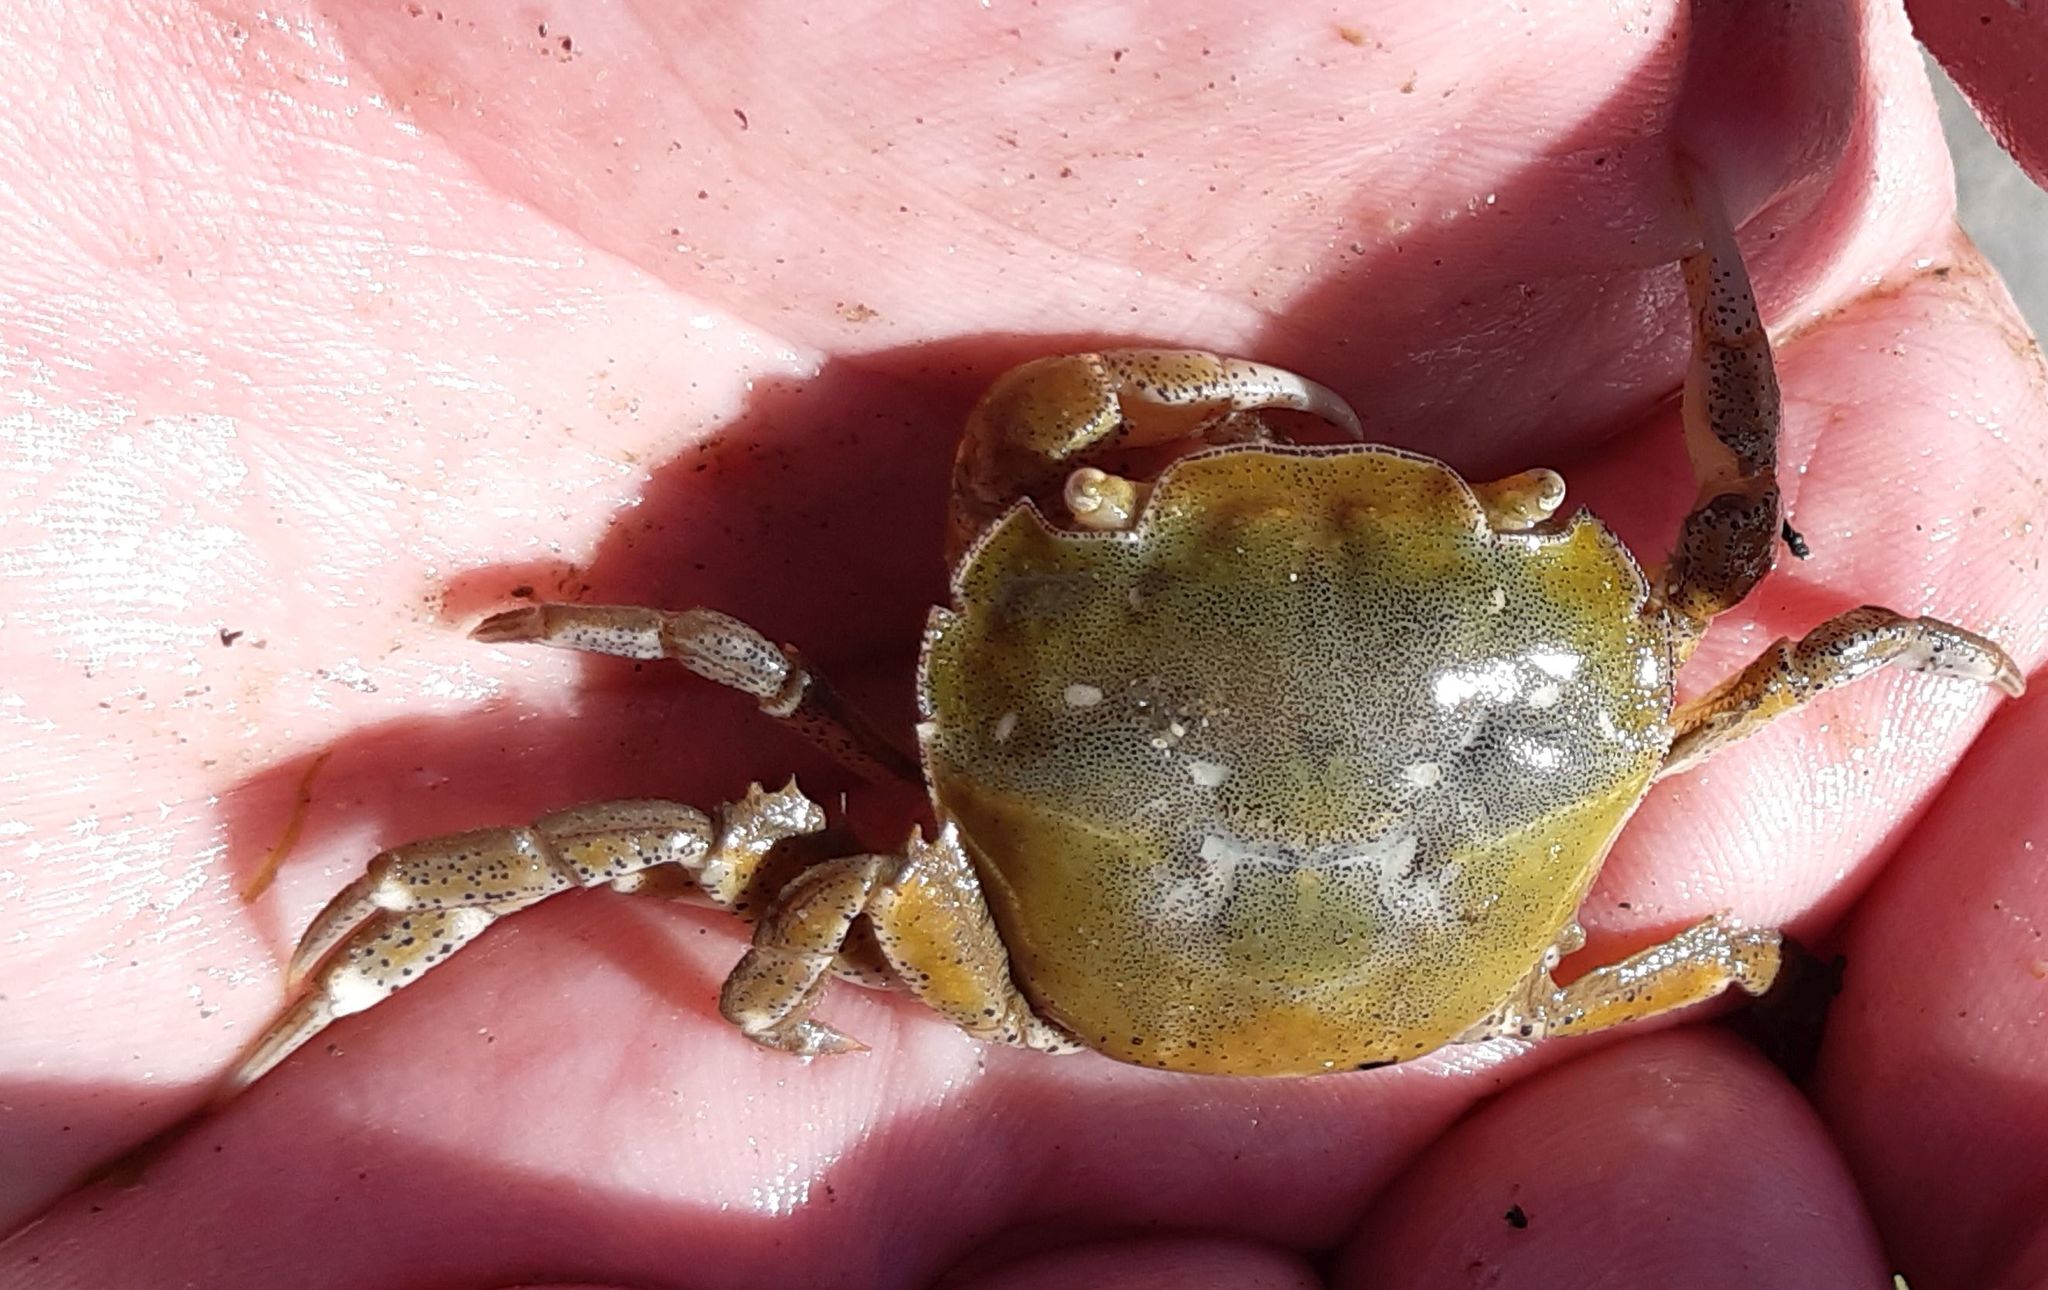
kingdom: Animalia
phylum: Arthropoda
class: Malacostraca
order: Decapoda
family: Varunidae
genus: Hemigrapsus
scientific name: Hemigrapsus crenulatus
